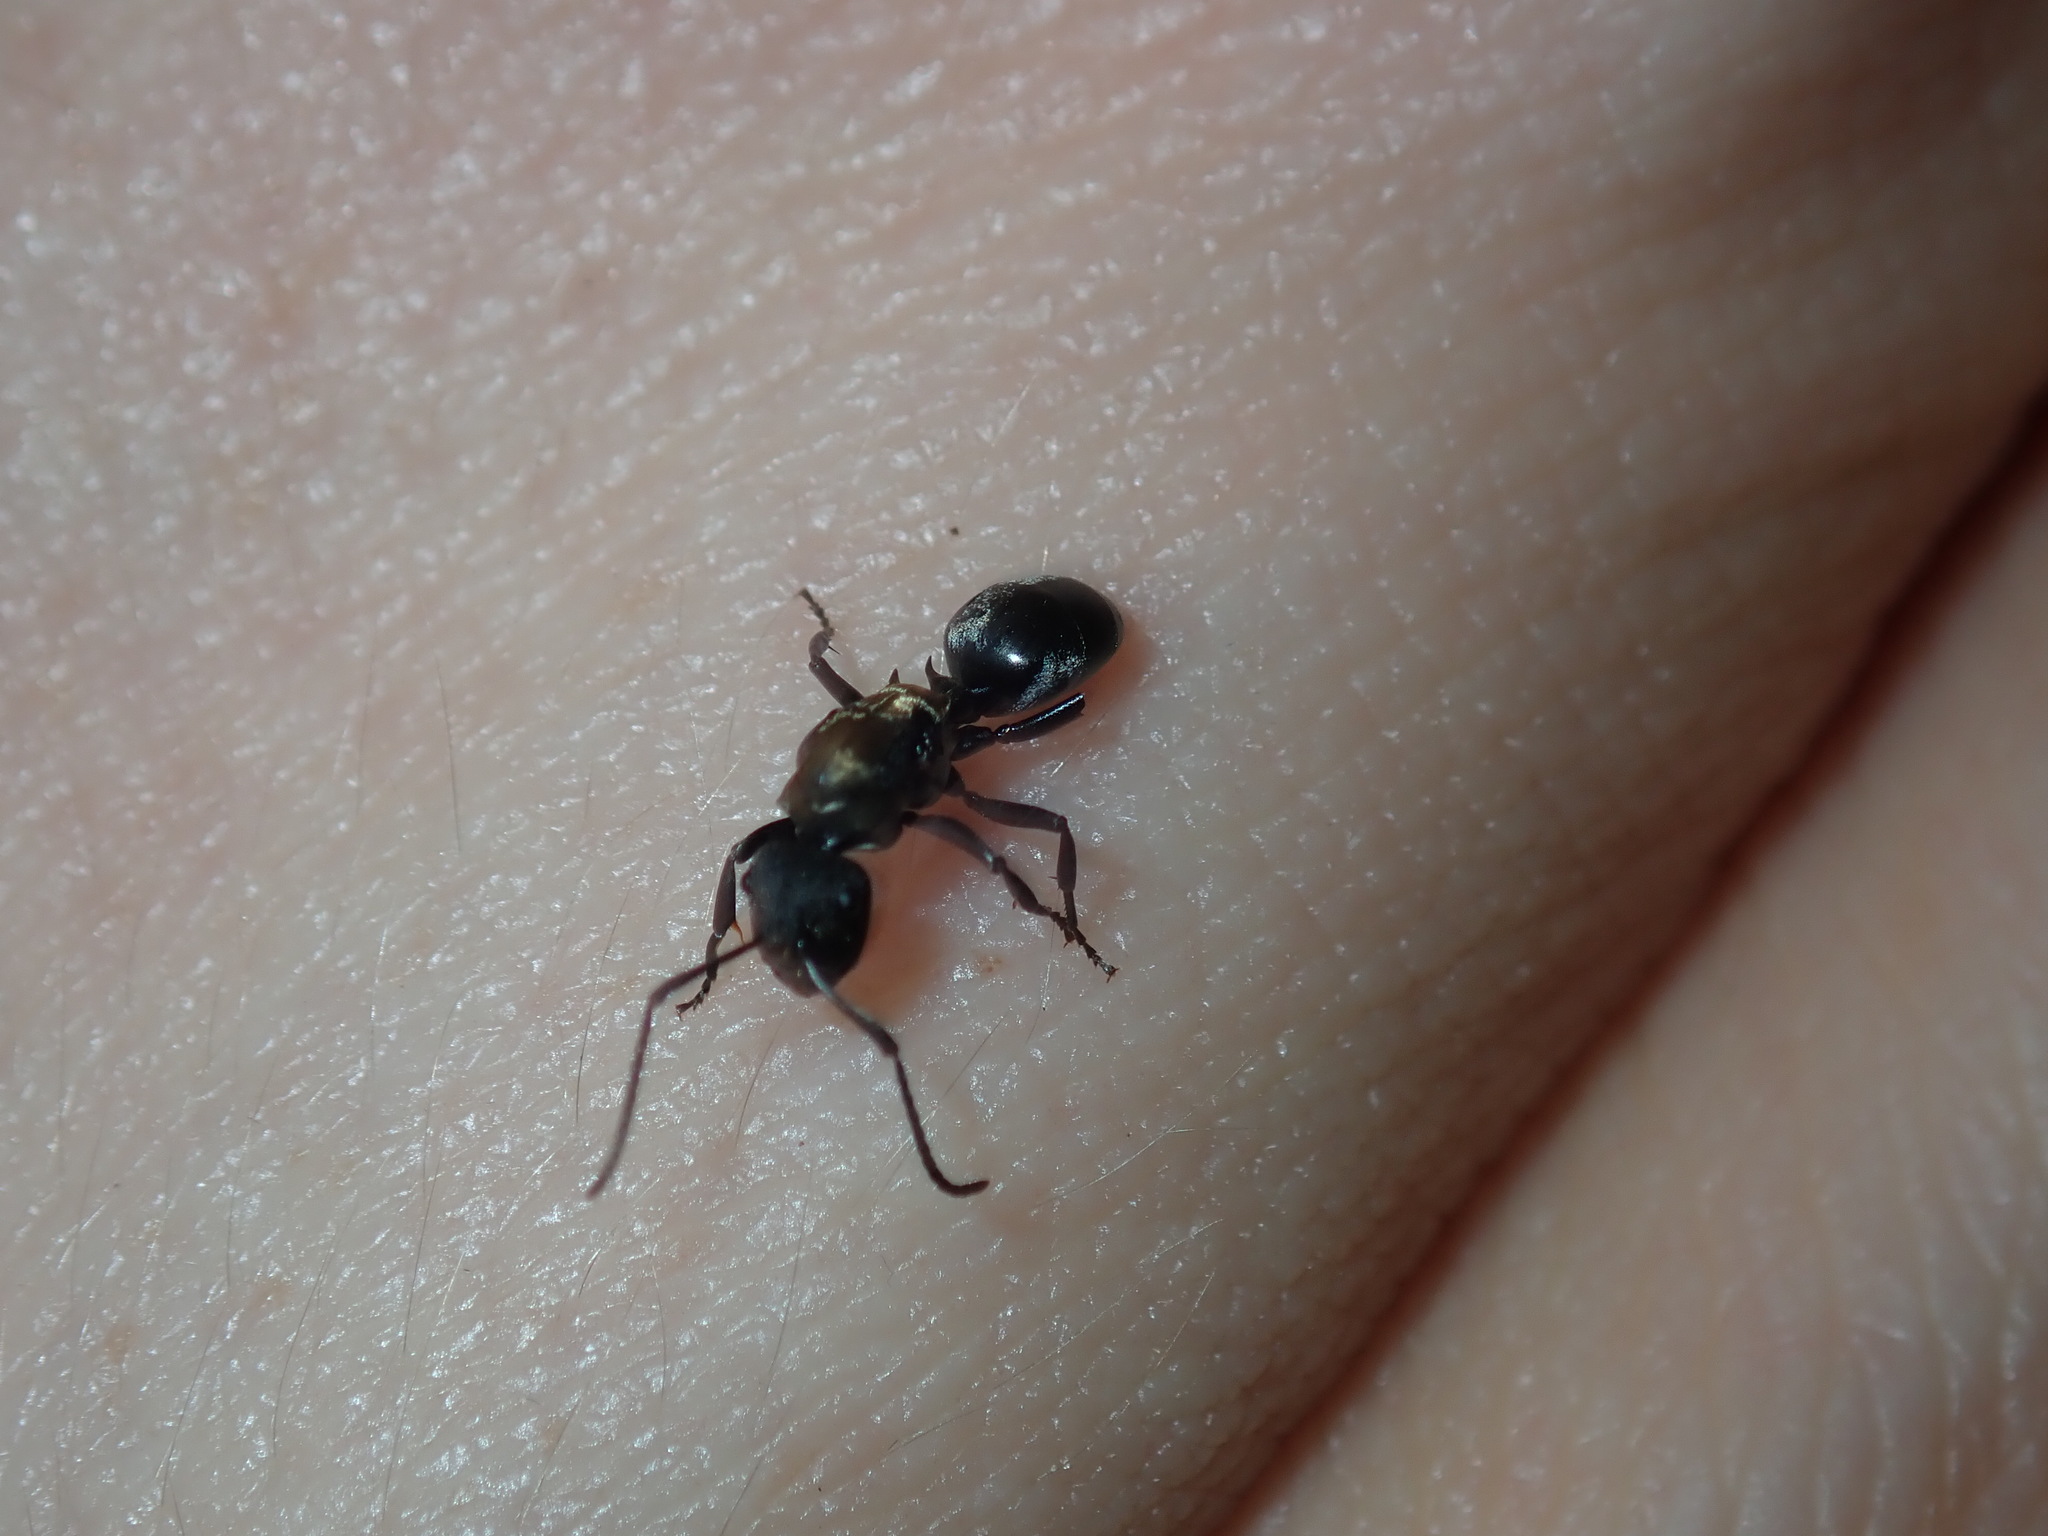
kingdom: Animalia
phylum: Arthropoda
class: Insecta
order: Hymenoptera
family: Formicidae
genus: Polyrhachis
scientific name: Polyrhachis ornata
